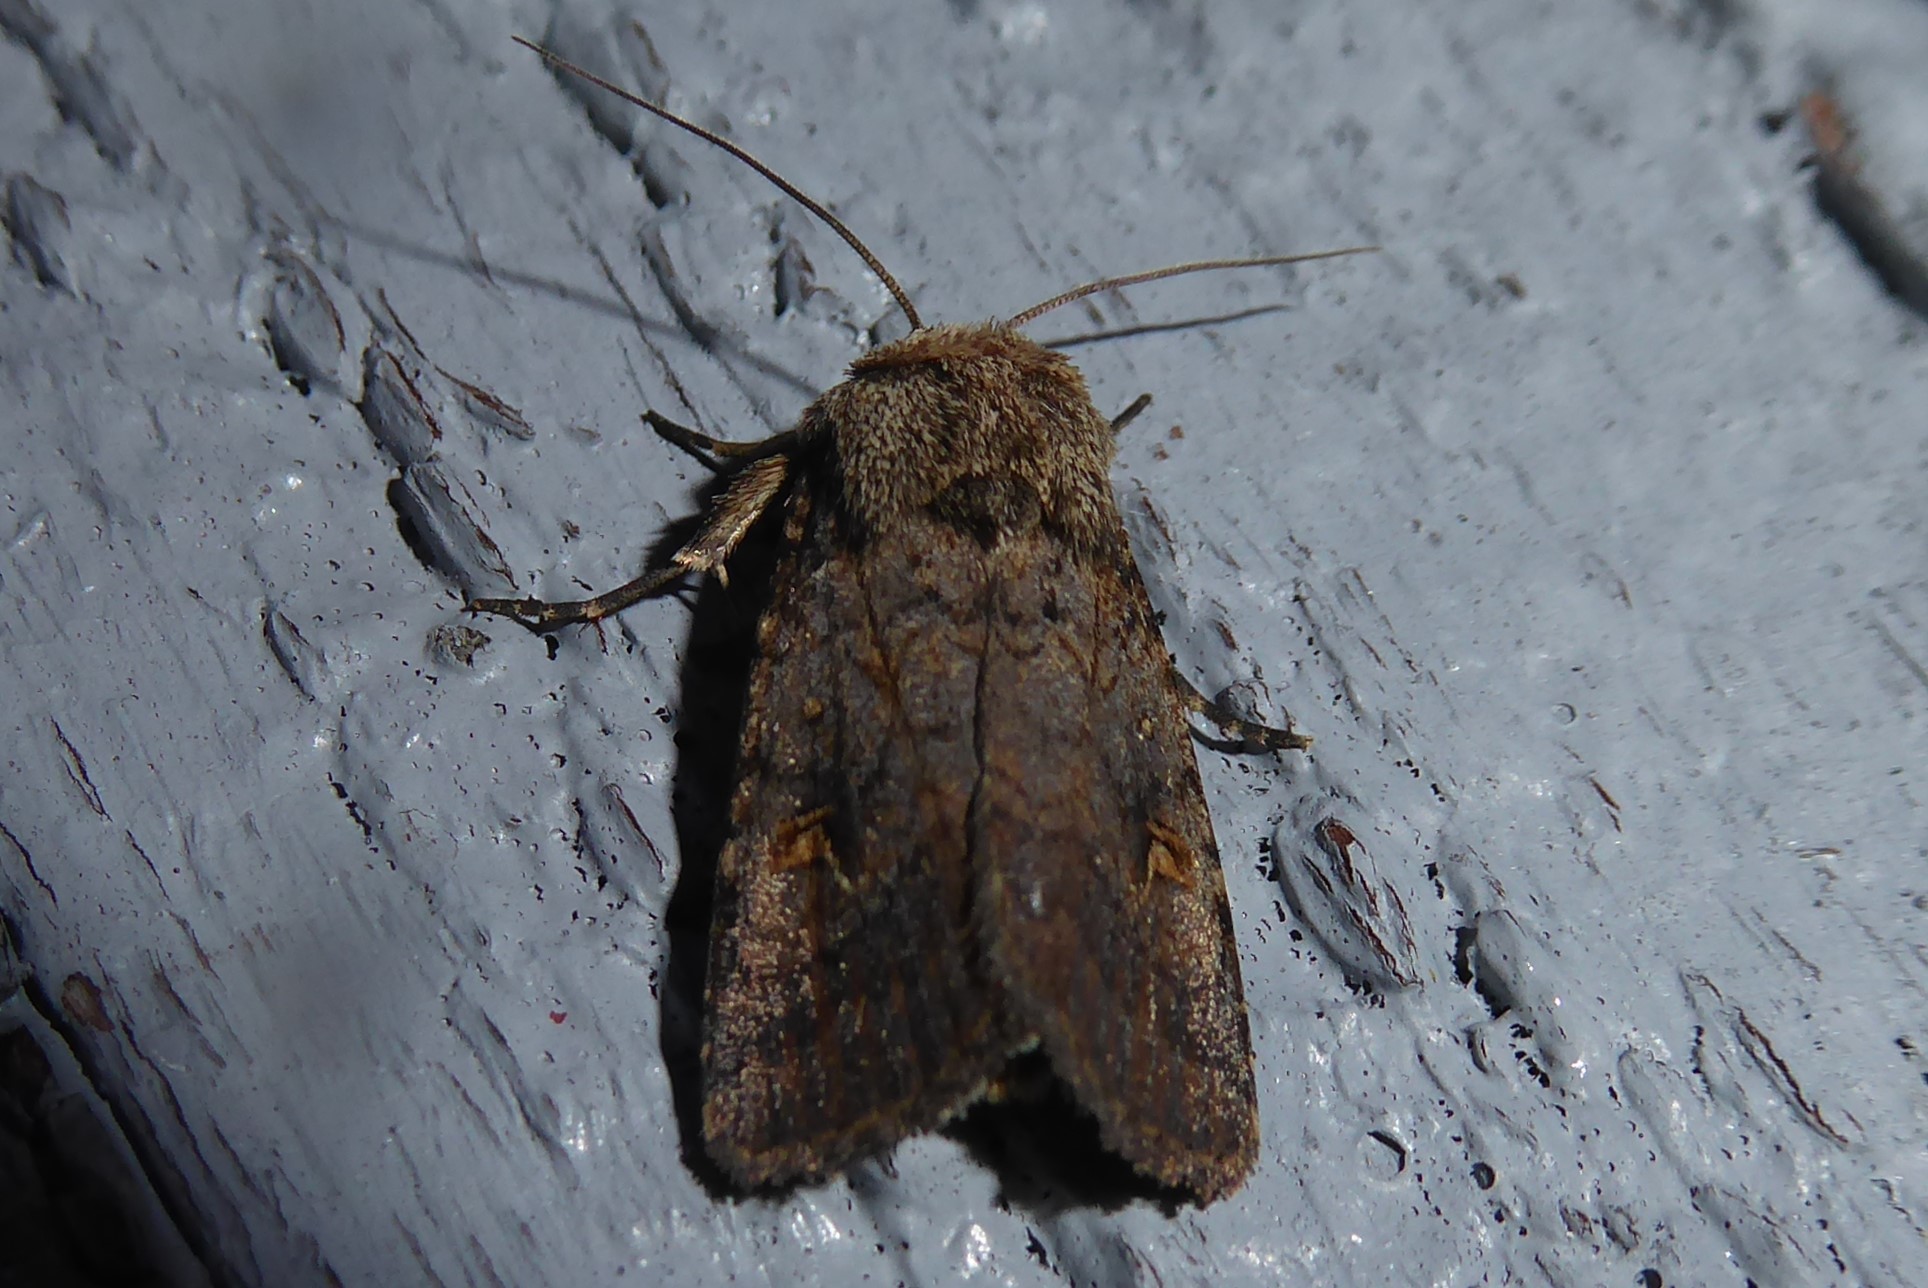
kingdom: Animalia
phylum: Arthropoda
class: Insecta
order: Lepidoptera
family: Noctuidae
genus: Proteuxoa
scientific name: Proteuxoa tetronycha
